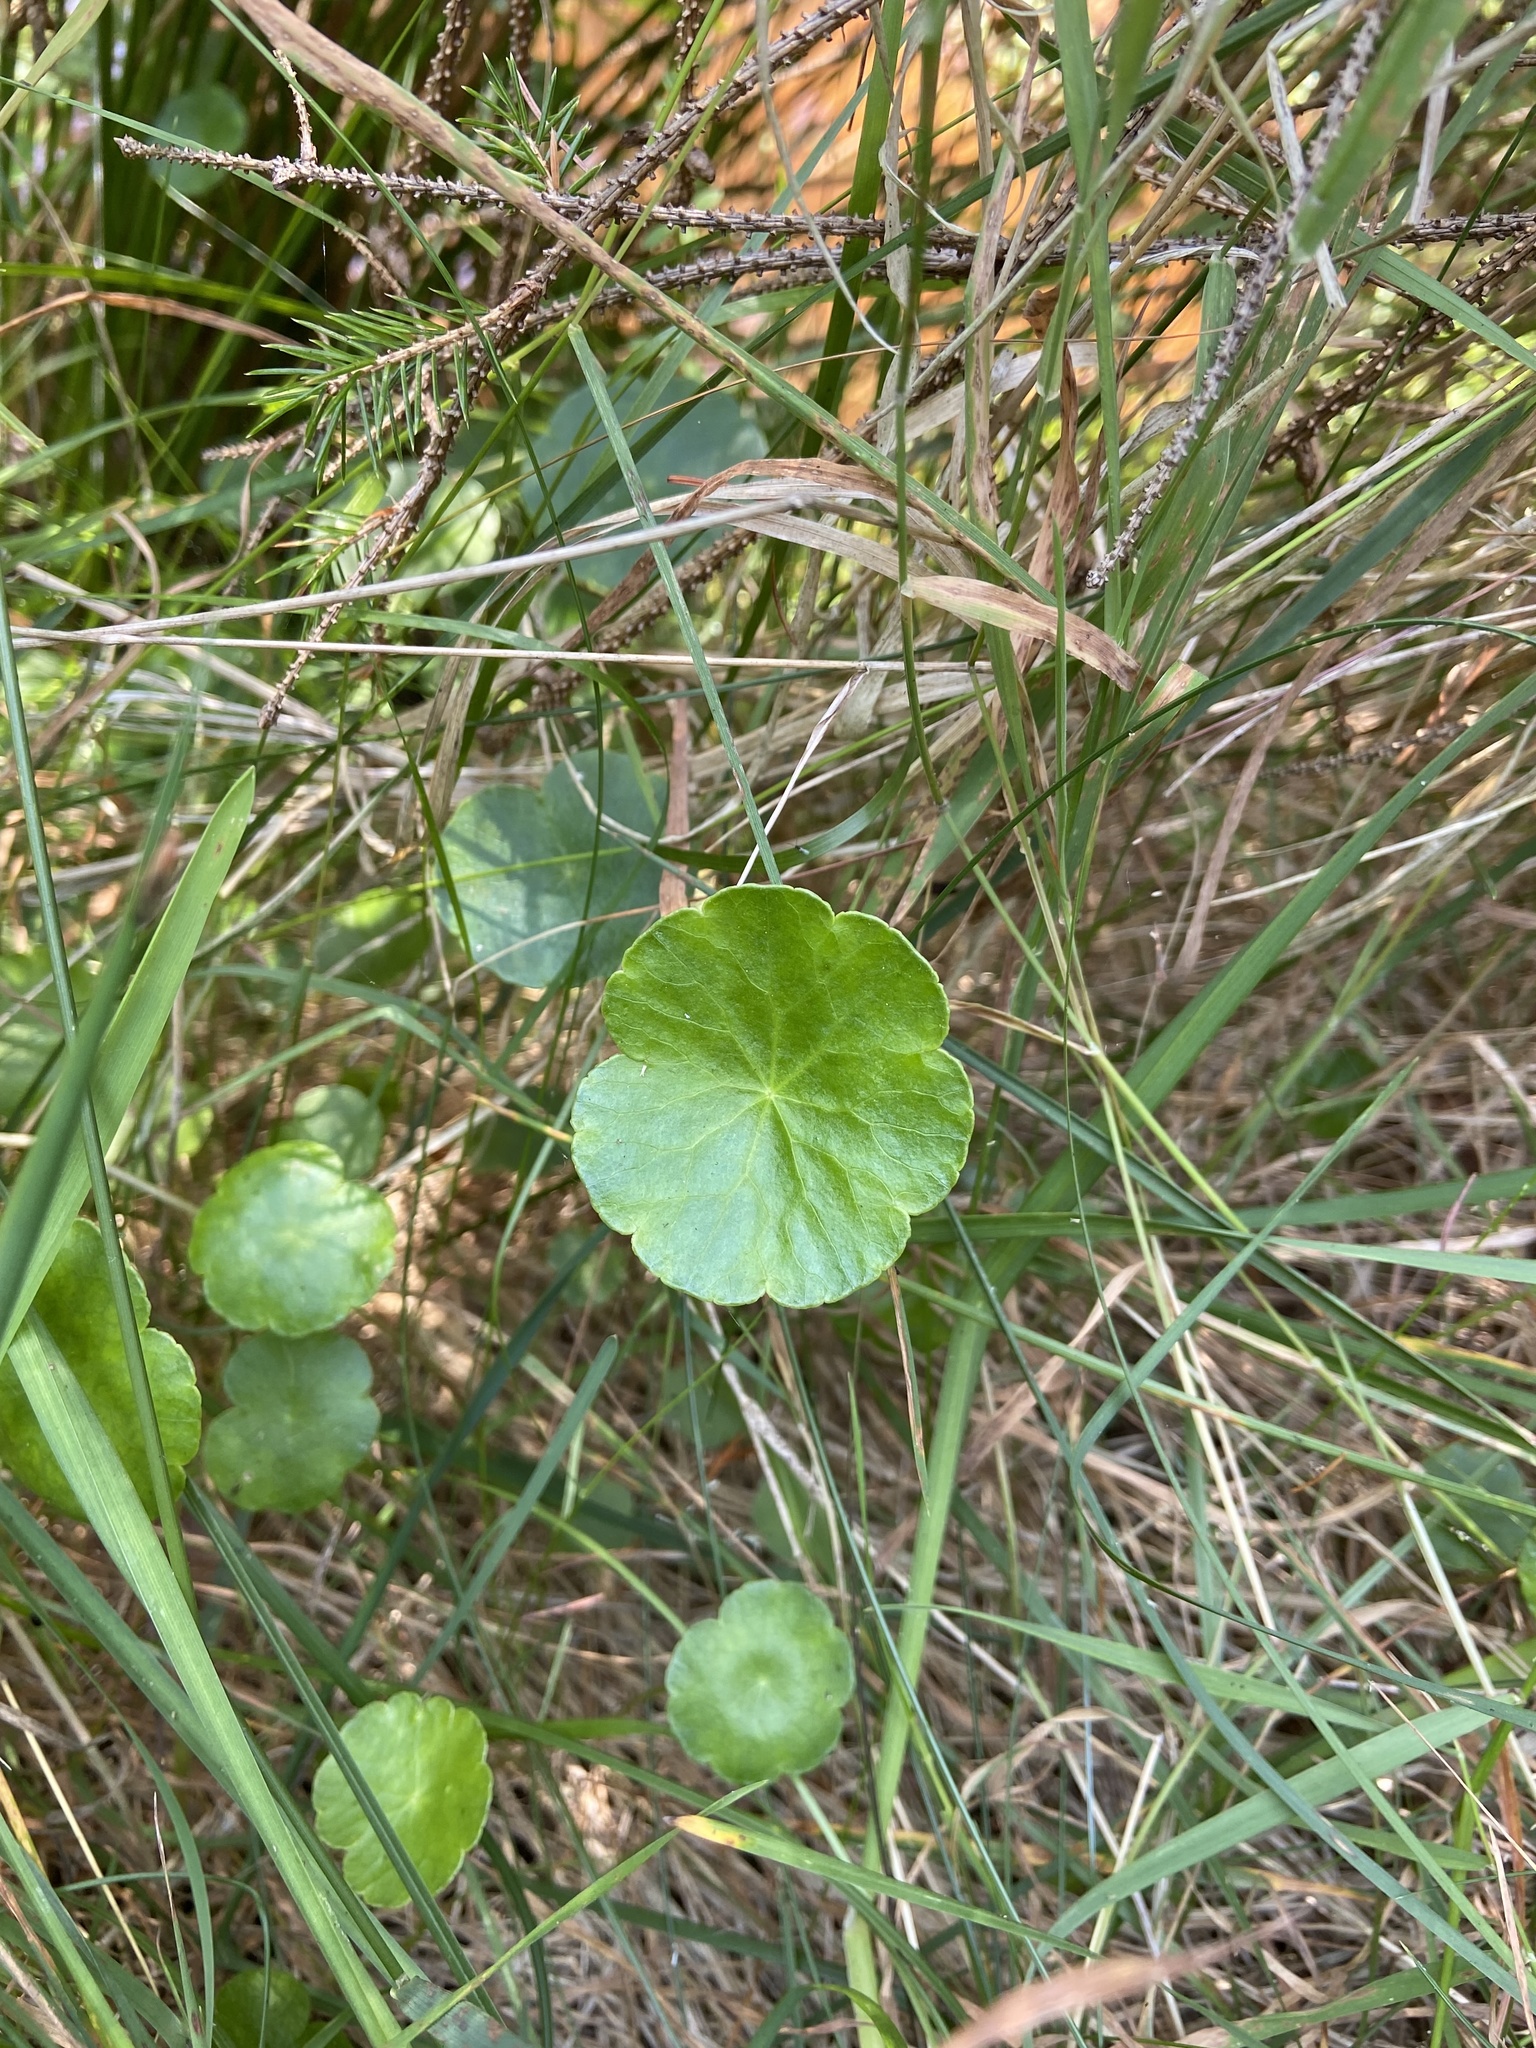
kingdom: Plantae
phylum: Tracheophyta
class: Magnoliopsida
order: Apiales
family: Araliaceae
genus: Hydrocotyle
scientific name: Hydrocotyle vulgaris
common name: Marsh pennywort
